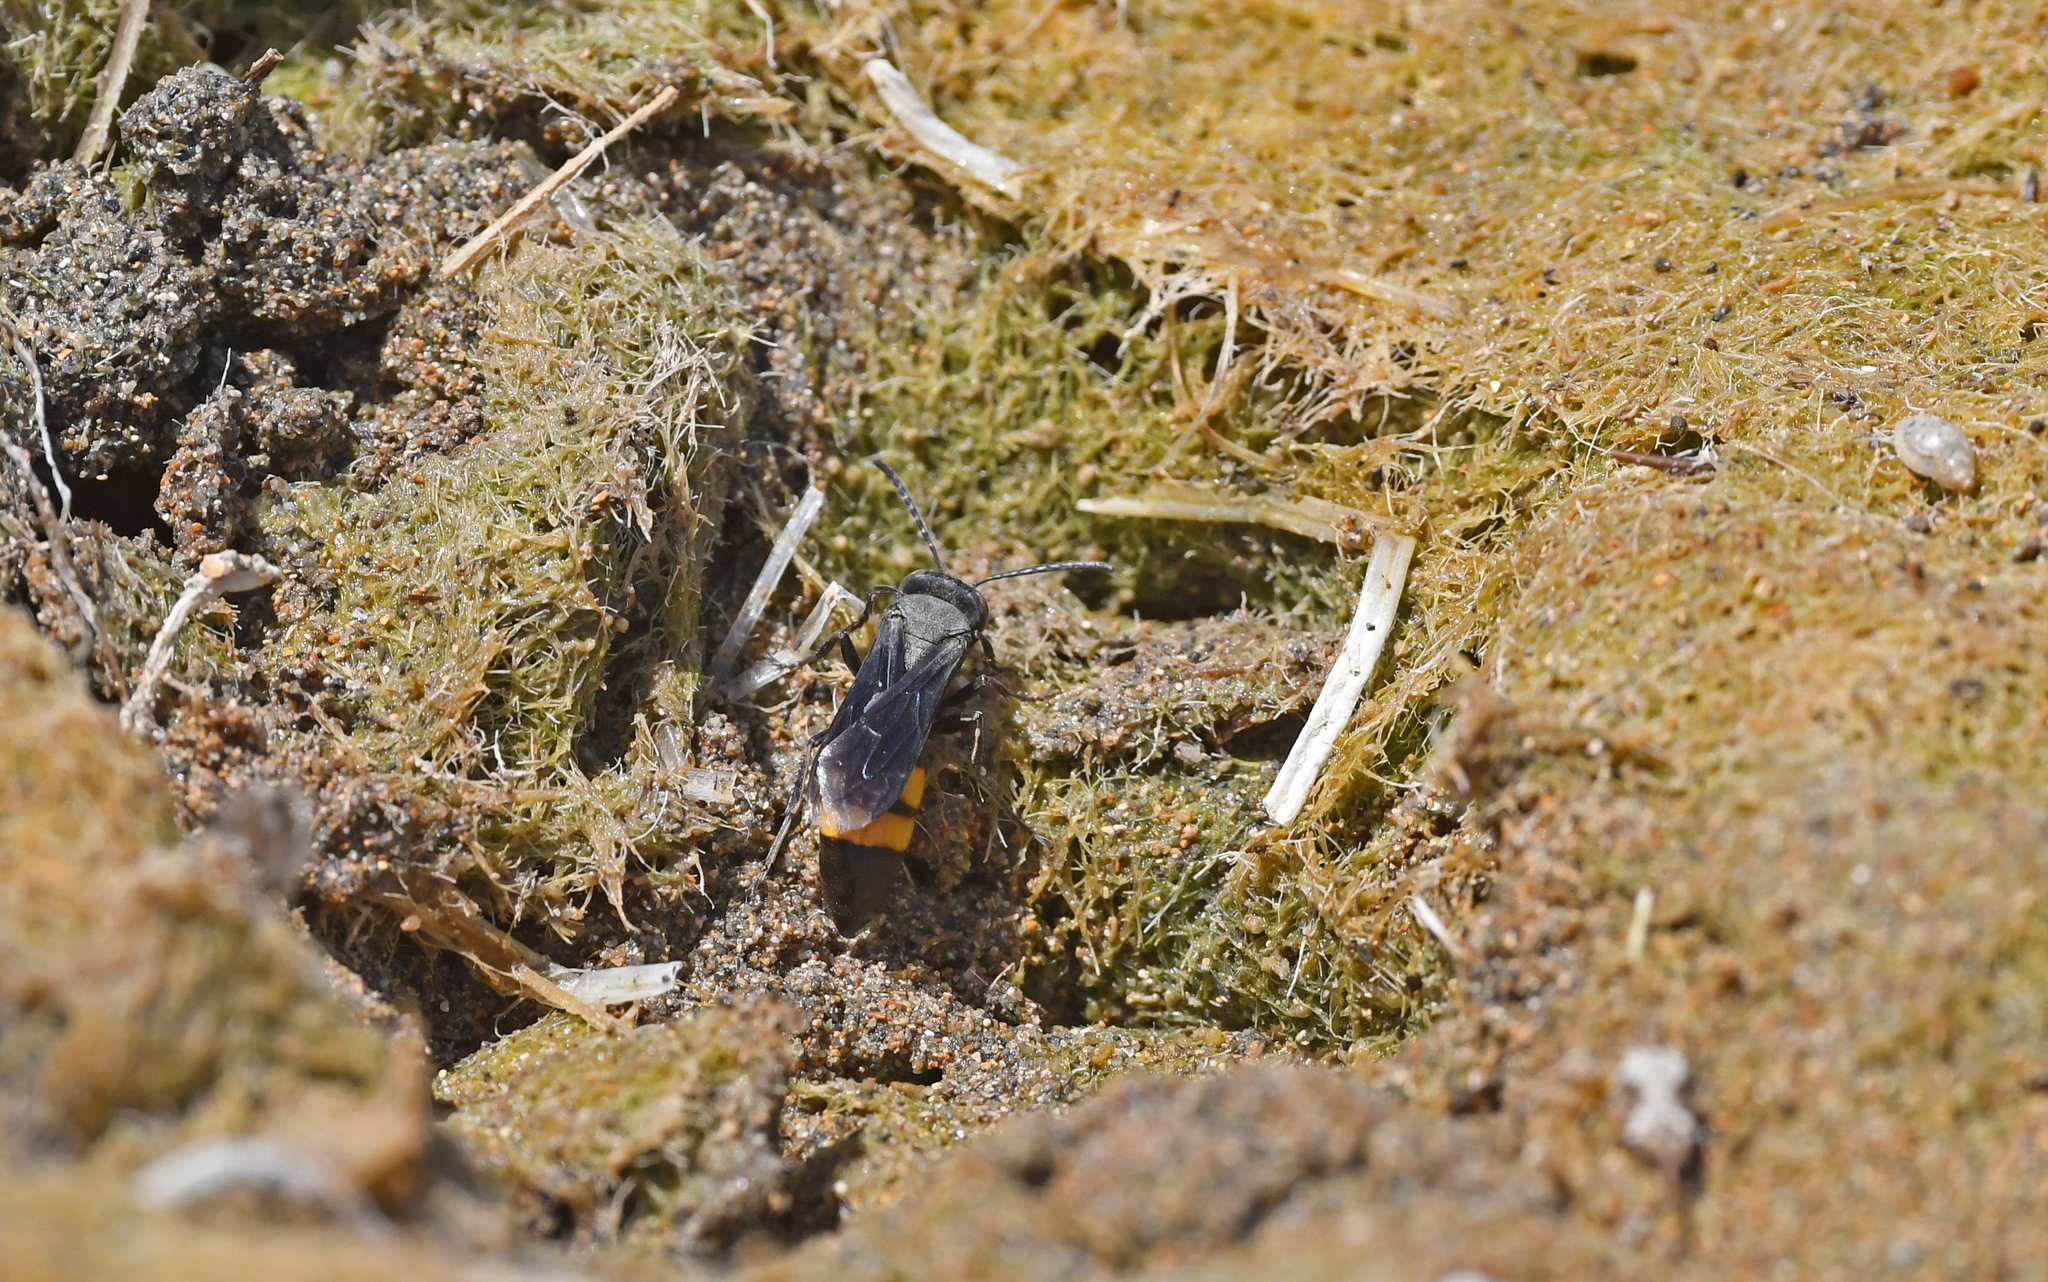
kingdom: Animalia
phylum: Arthropoda
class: Insecta
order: Hymenoptera
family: Scoliidae
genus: Scolia
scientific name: Scolia hirta
